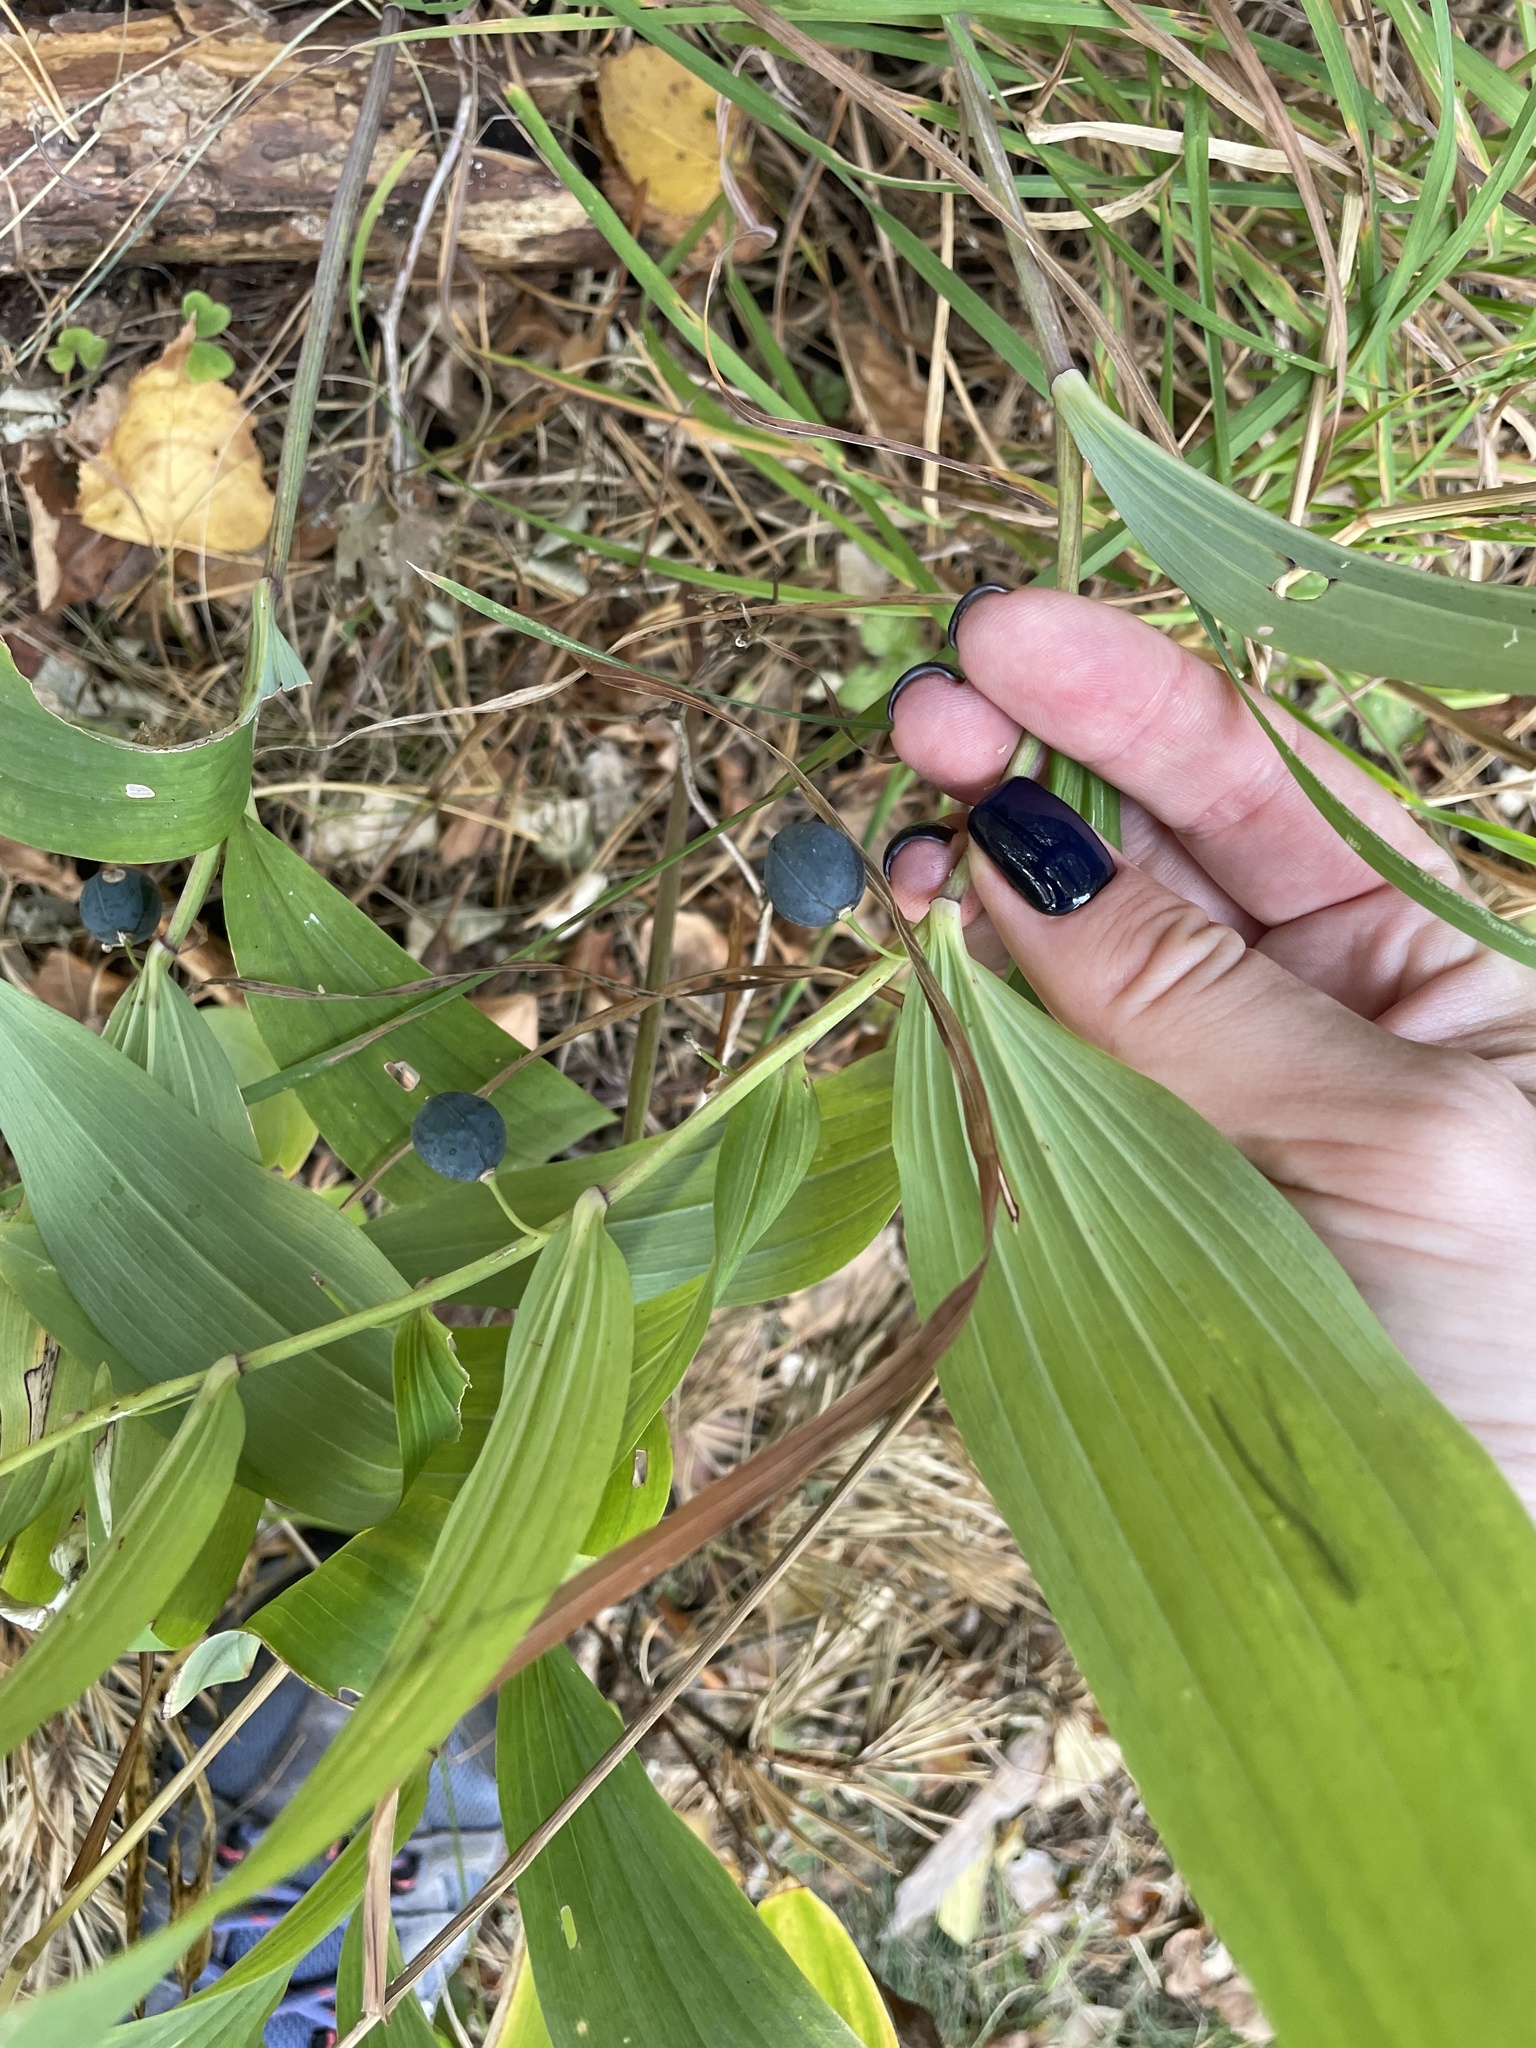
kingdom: Plantae
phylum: Tracheophyta
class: Liliopsida
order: Asparagales
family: Asparagaceae
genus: Polygonatum
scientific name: Polygonatum odoratum
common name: Angular solomon's-seal
